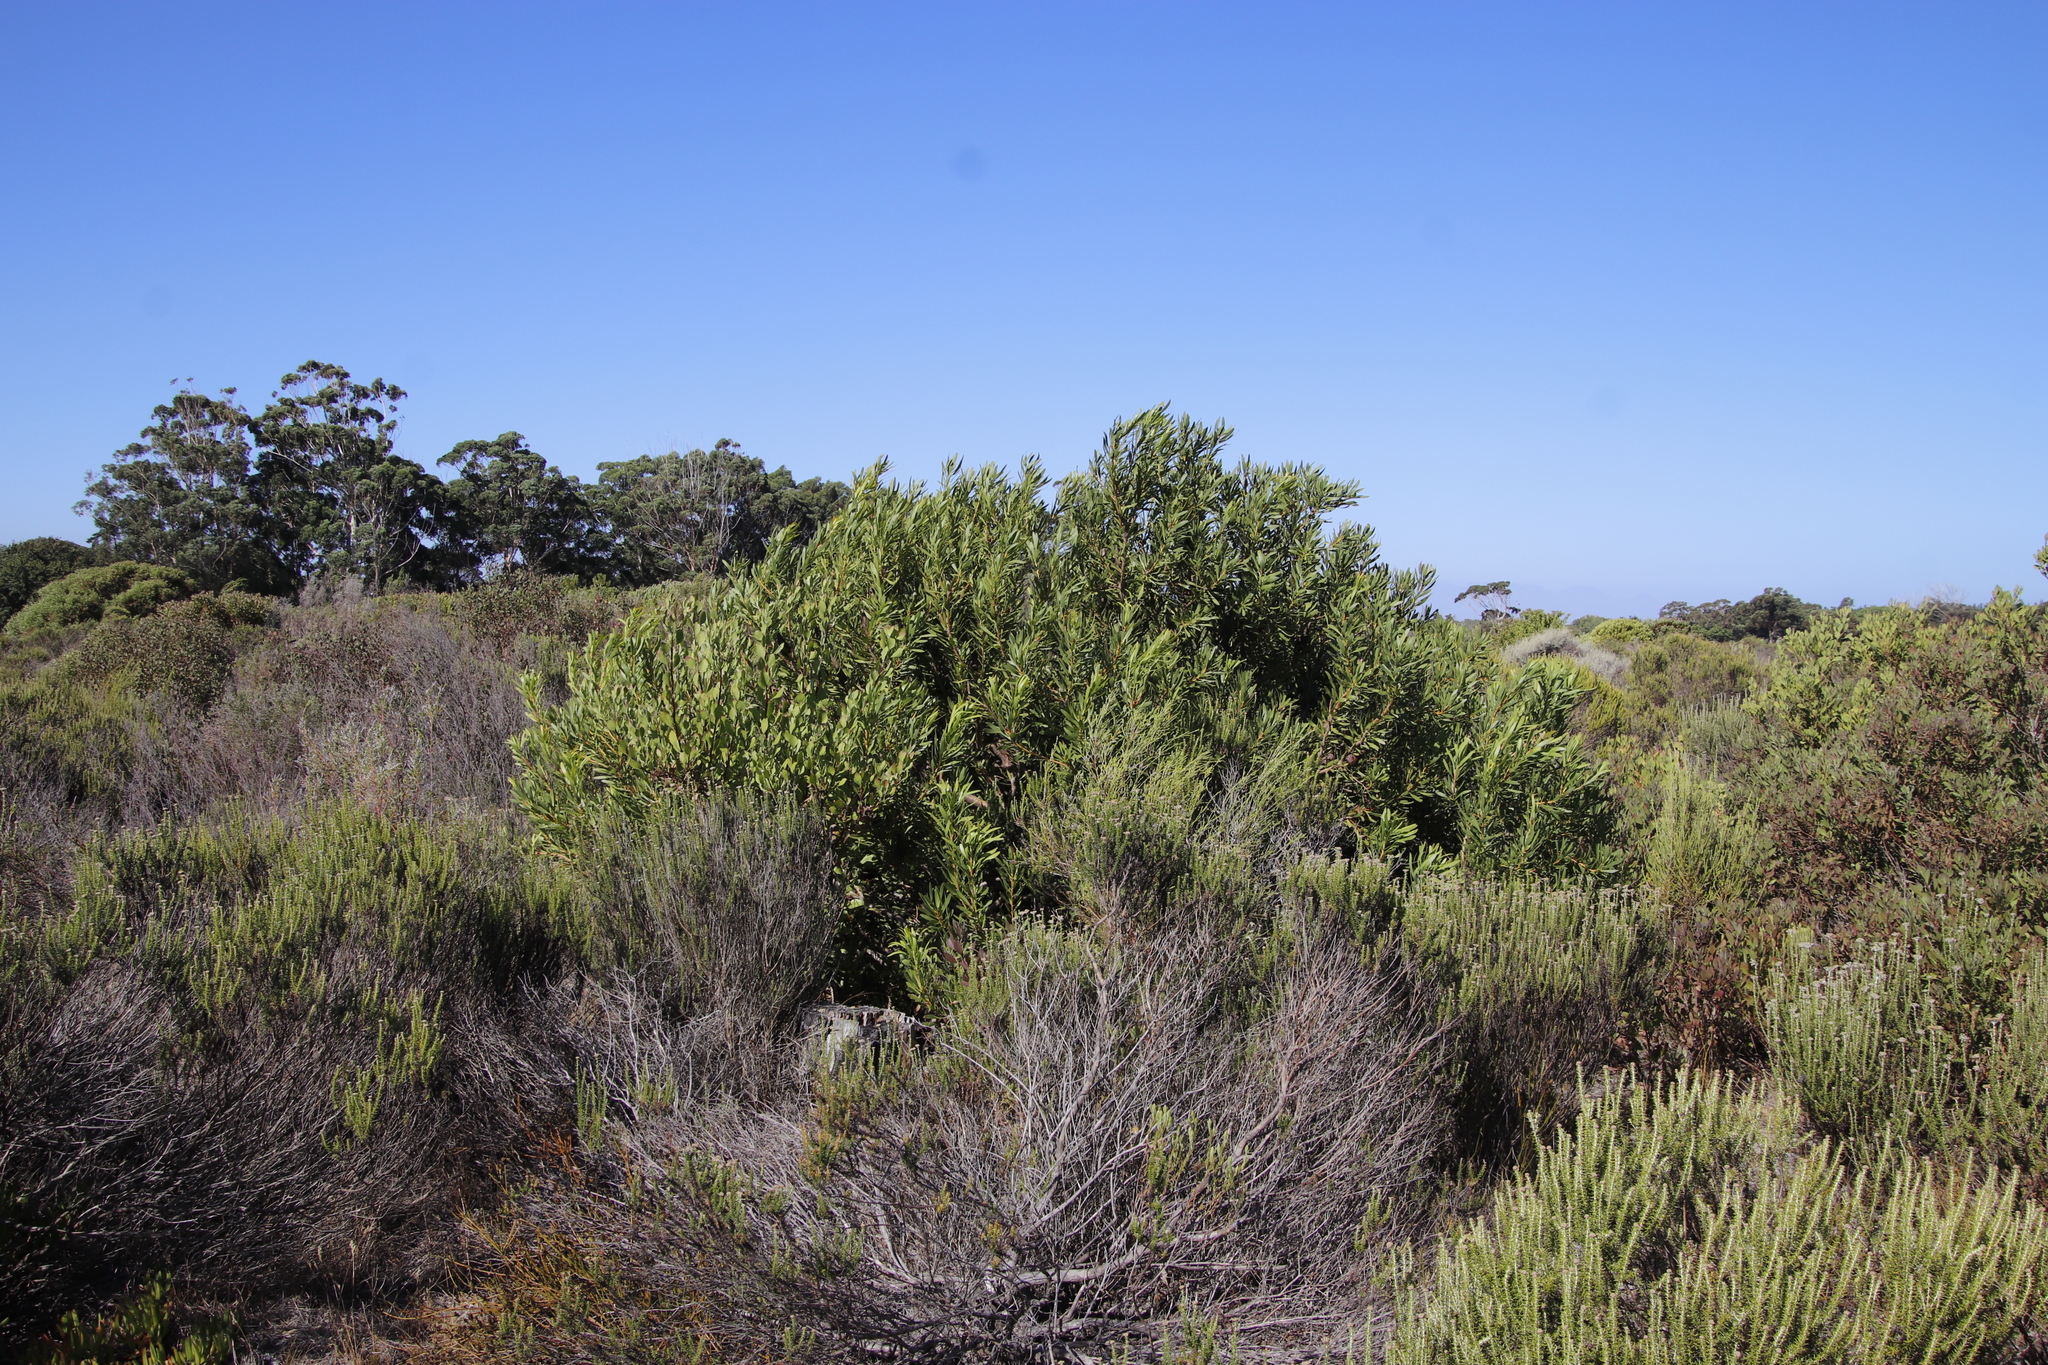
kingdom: Plantae
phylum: Tracheophyta
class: Magnoliopsida
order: Proteales
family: Proteaceae
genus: Protea
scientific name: Protea repens
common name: Sugarbush
